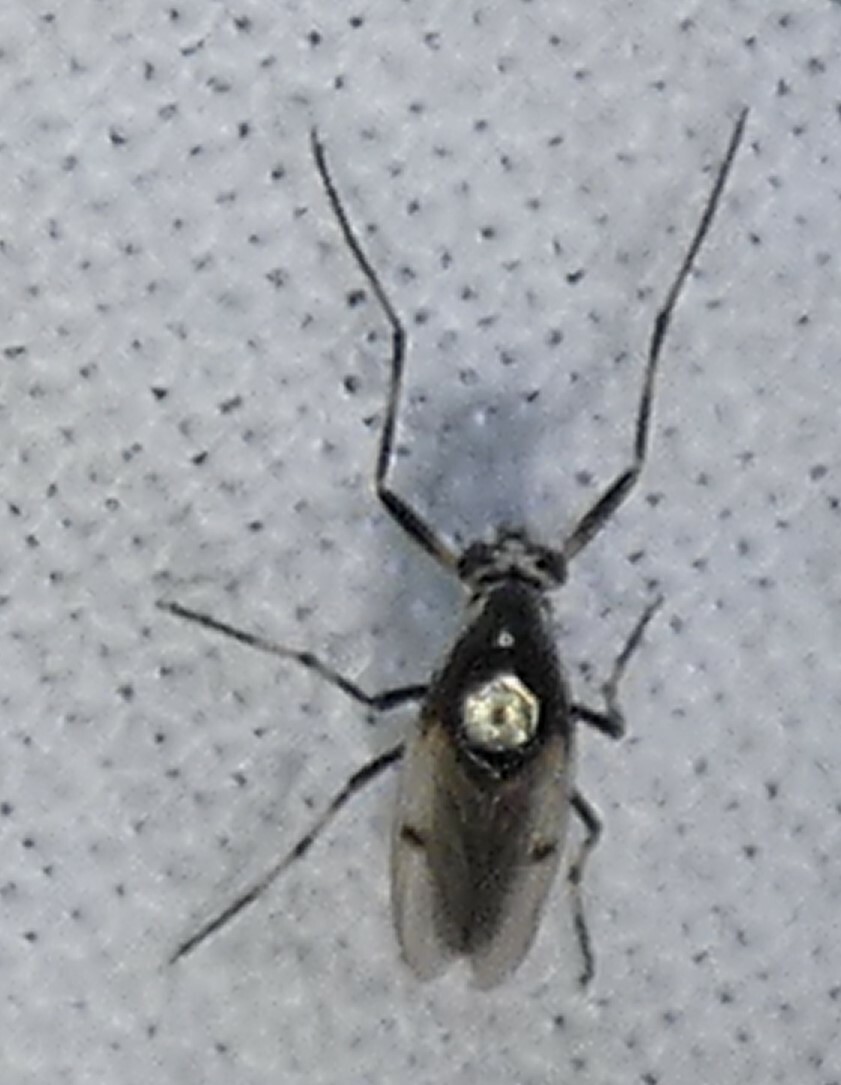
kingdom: Animalia
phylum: Arthropoda
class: Insecta
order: Diptera
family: Chironomidae
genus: Coelotanypus
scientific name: Coelotanypus scapularis
